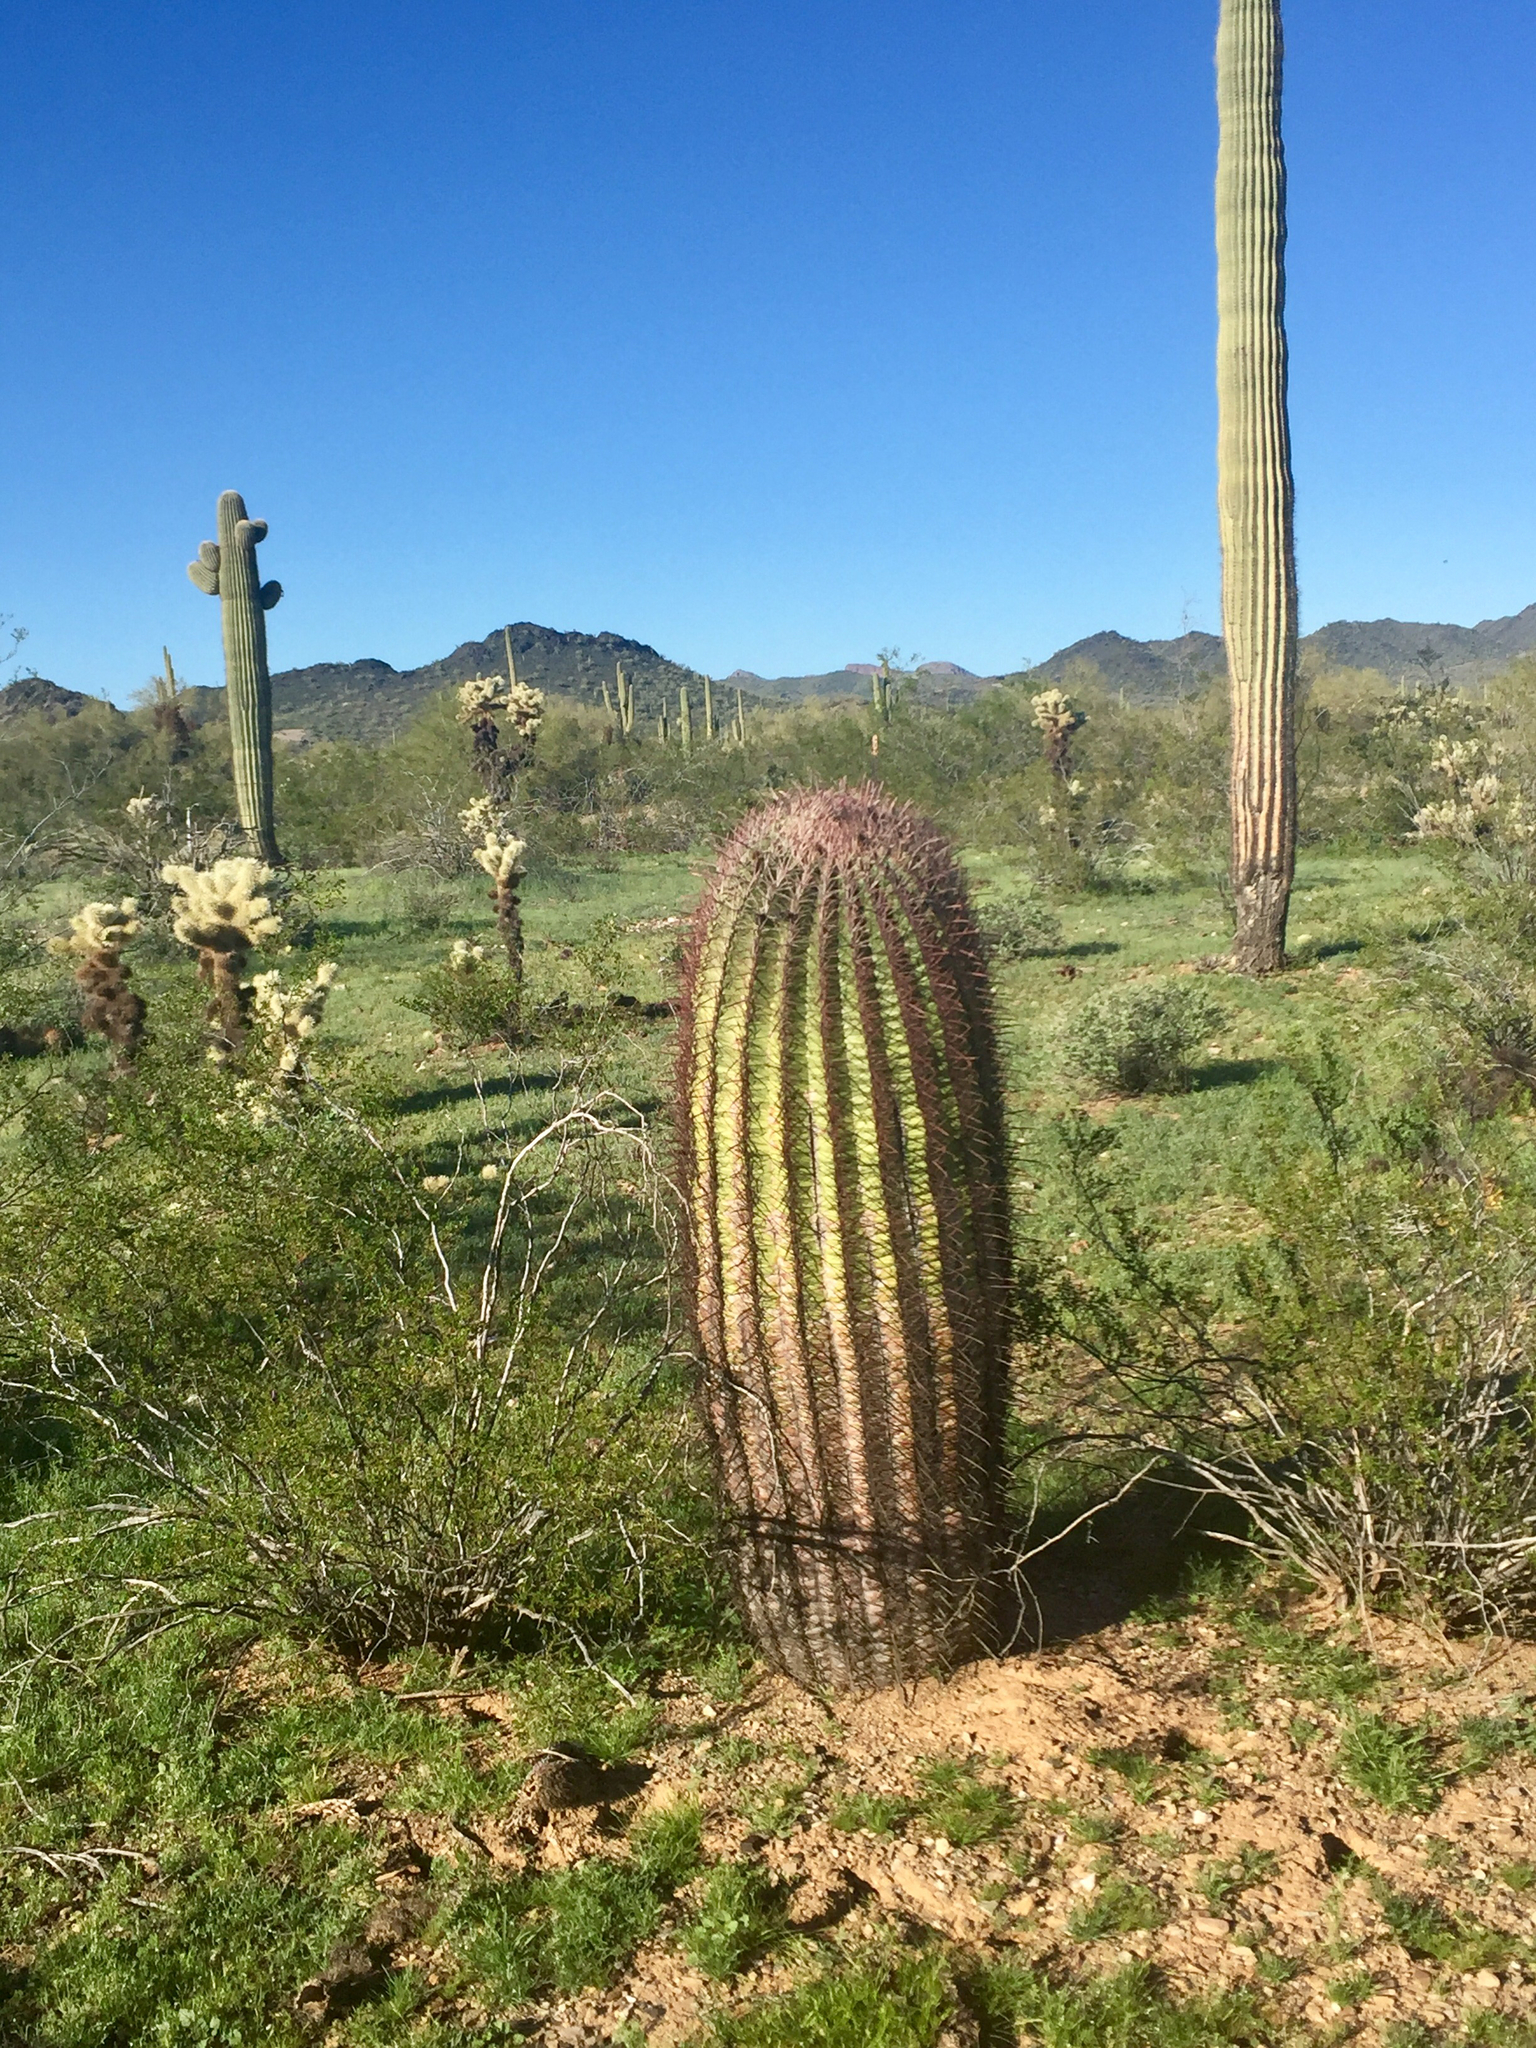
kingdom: Plantae
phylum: Tracheophyta
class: Magnoliopsida
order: Caryophyllales
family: Cactaceae
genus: Ferocactus
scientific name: Ferocactus cylindraceus
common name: California barrel cactus
